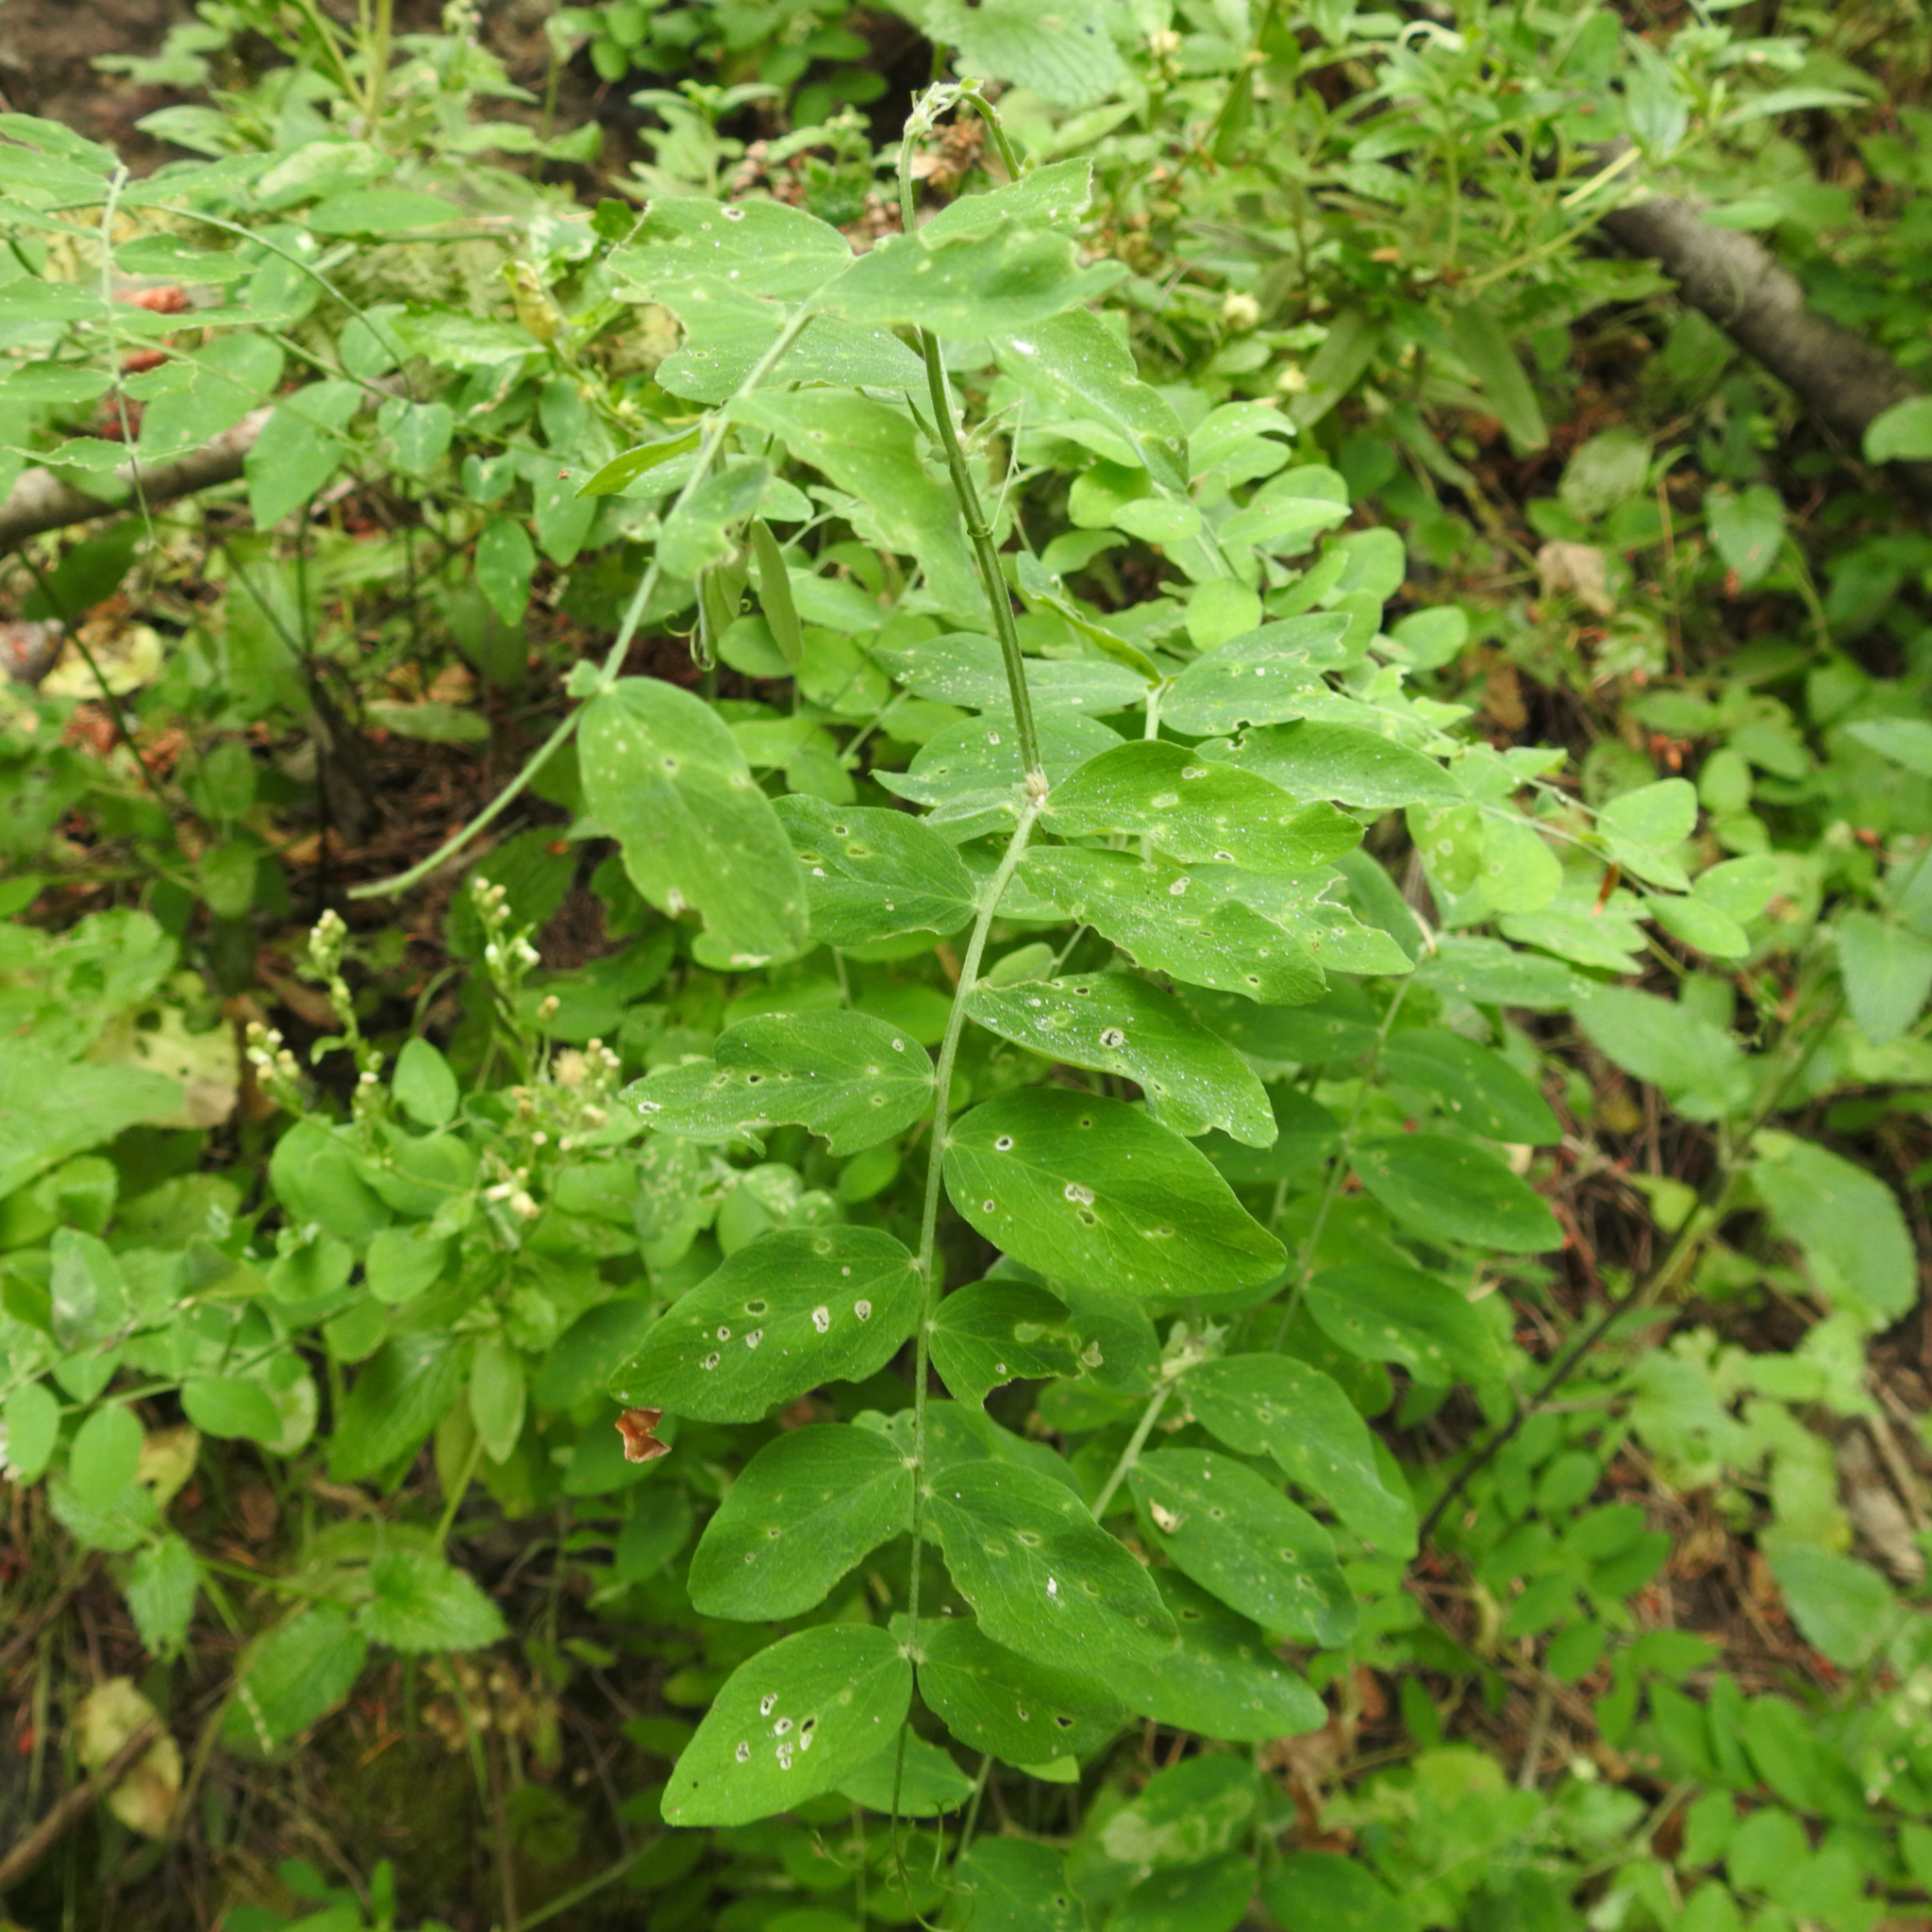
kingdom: Plantae
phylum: Tracheophyta
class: Magnoliopsida
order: Fabales
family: Fabaceae
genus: Lathyrus
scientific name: Lathyrus vestitus
